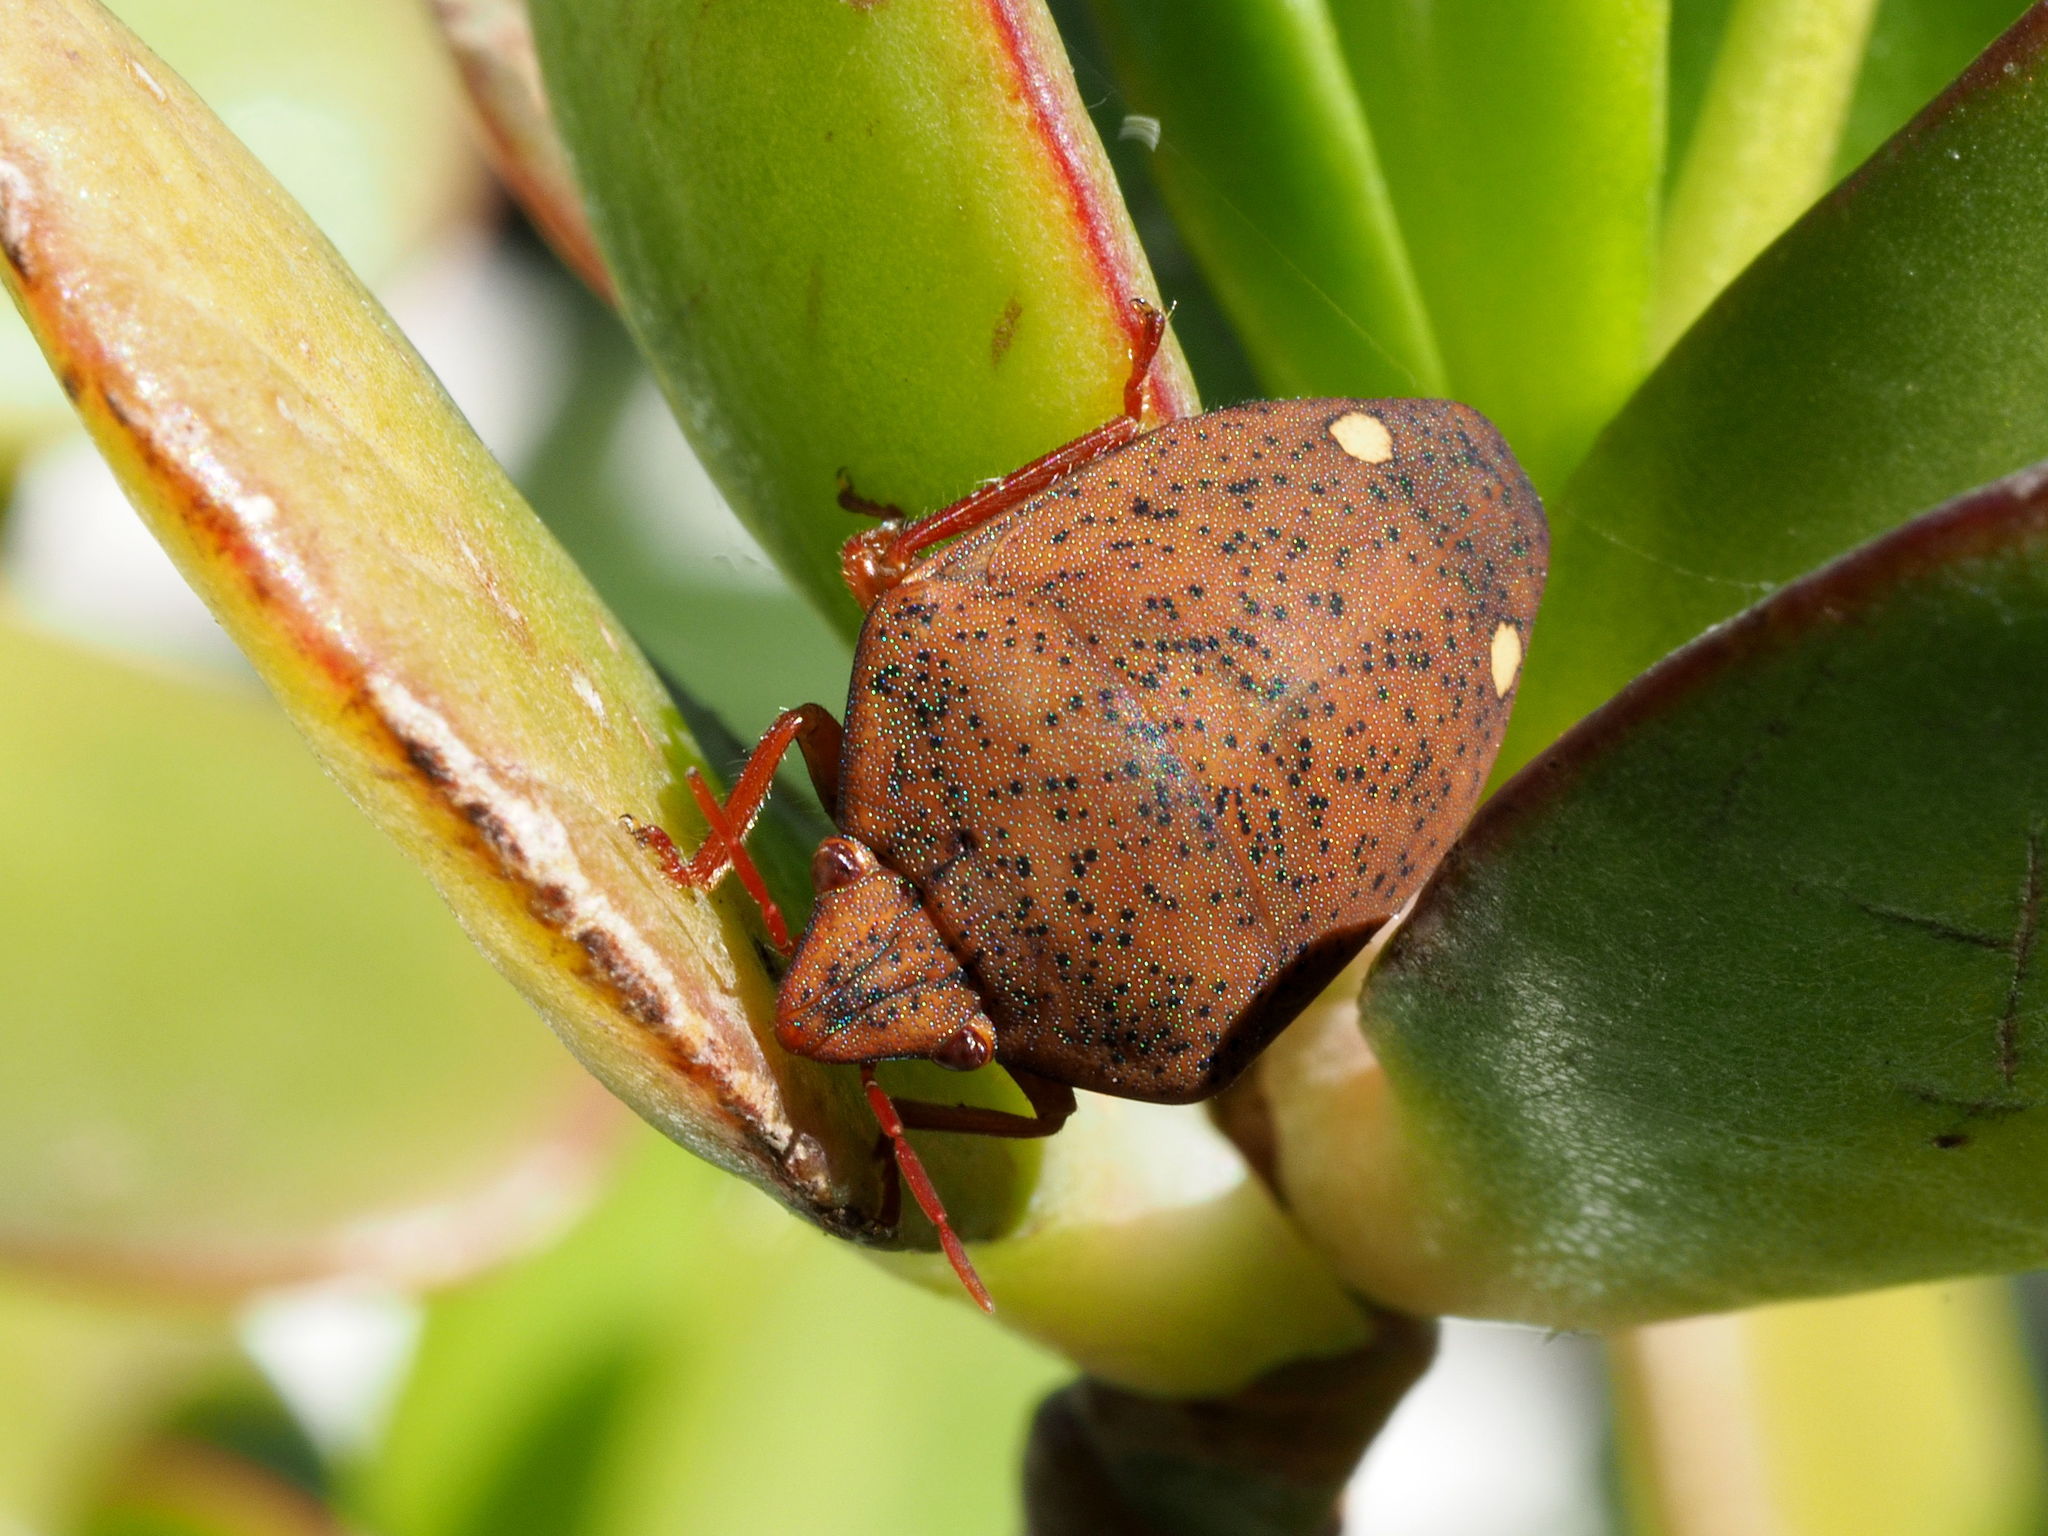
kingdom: Animalia
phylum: Arthropoda
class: Insecta
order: Hemiptera
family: Scutelleridae
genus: Solenosthedium
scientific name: Solenosthedium bilunatum
